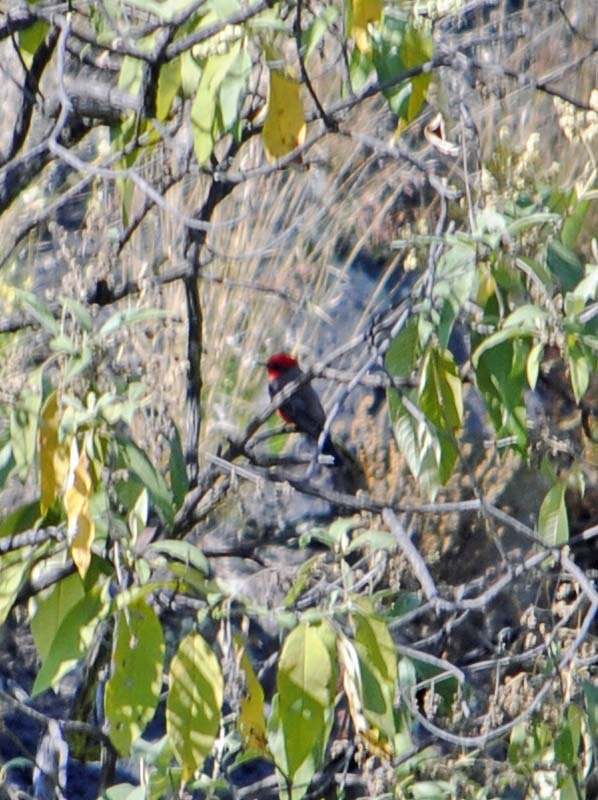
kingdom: Animalia
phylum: Chordata
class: Aves
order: Passeriformes
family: Tyrannidae
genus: Pyrocephalus
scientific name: Pyrocephalus rubinus
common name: Vermilion flycatcher
